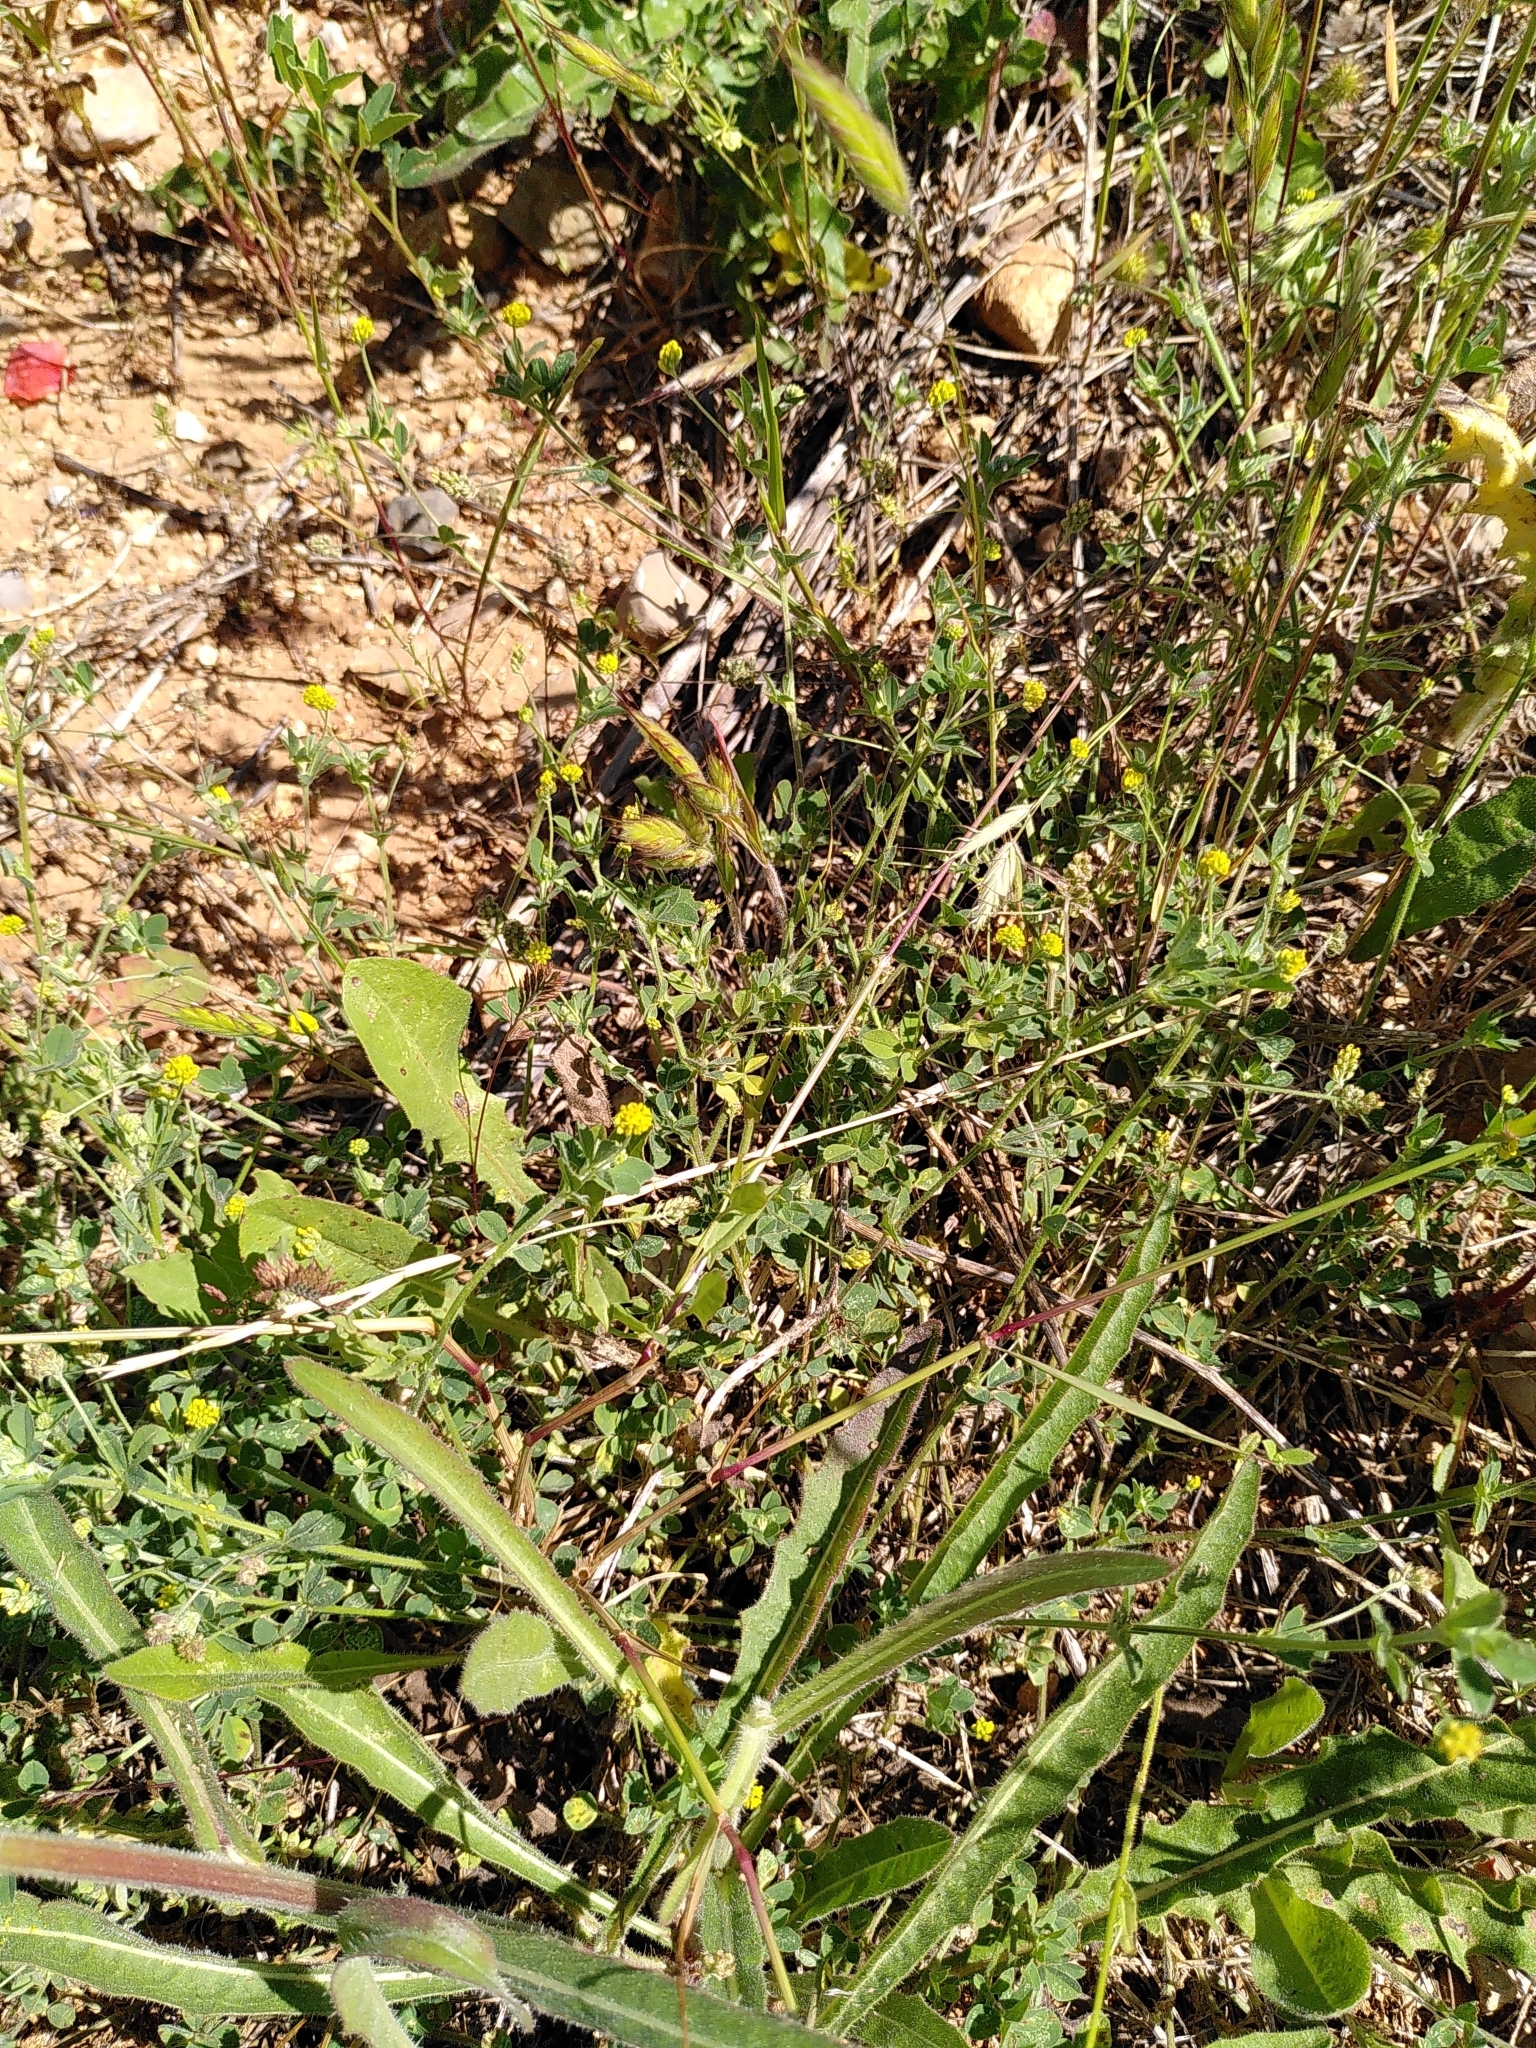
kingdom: Plantae
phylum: Tracheophyta
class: Magnoliopsida
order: Fabales
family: Fabaceae
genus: Medicago
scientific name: Medicago lupulina
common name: Black medick
